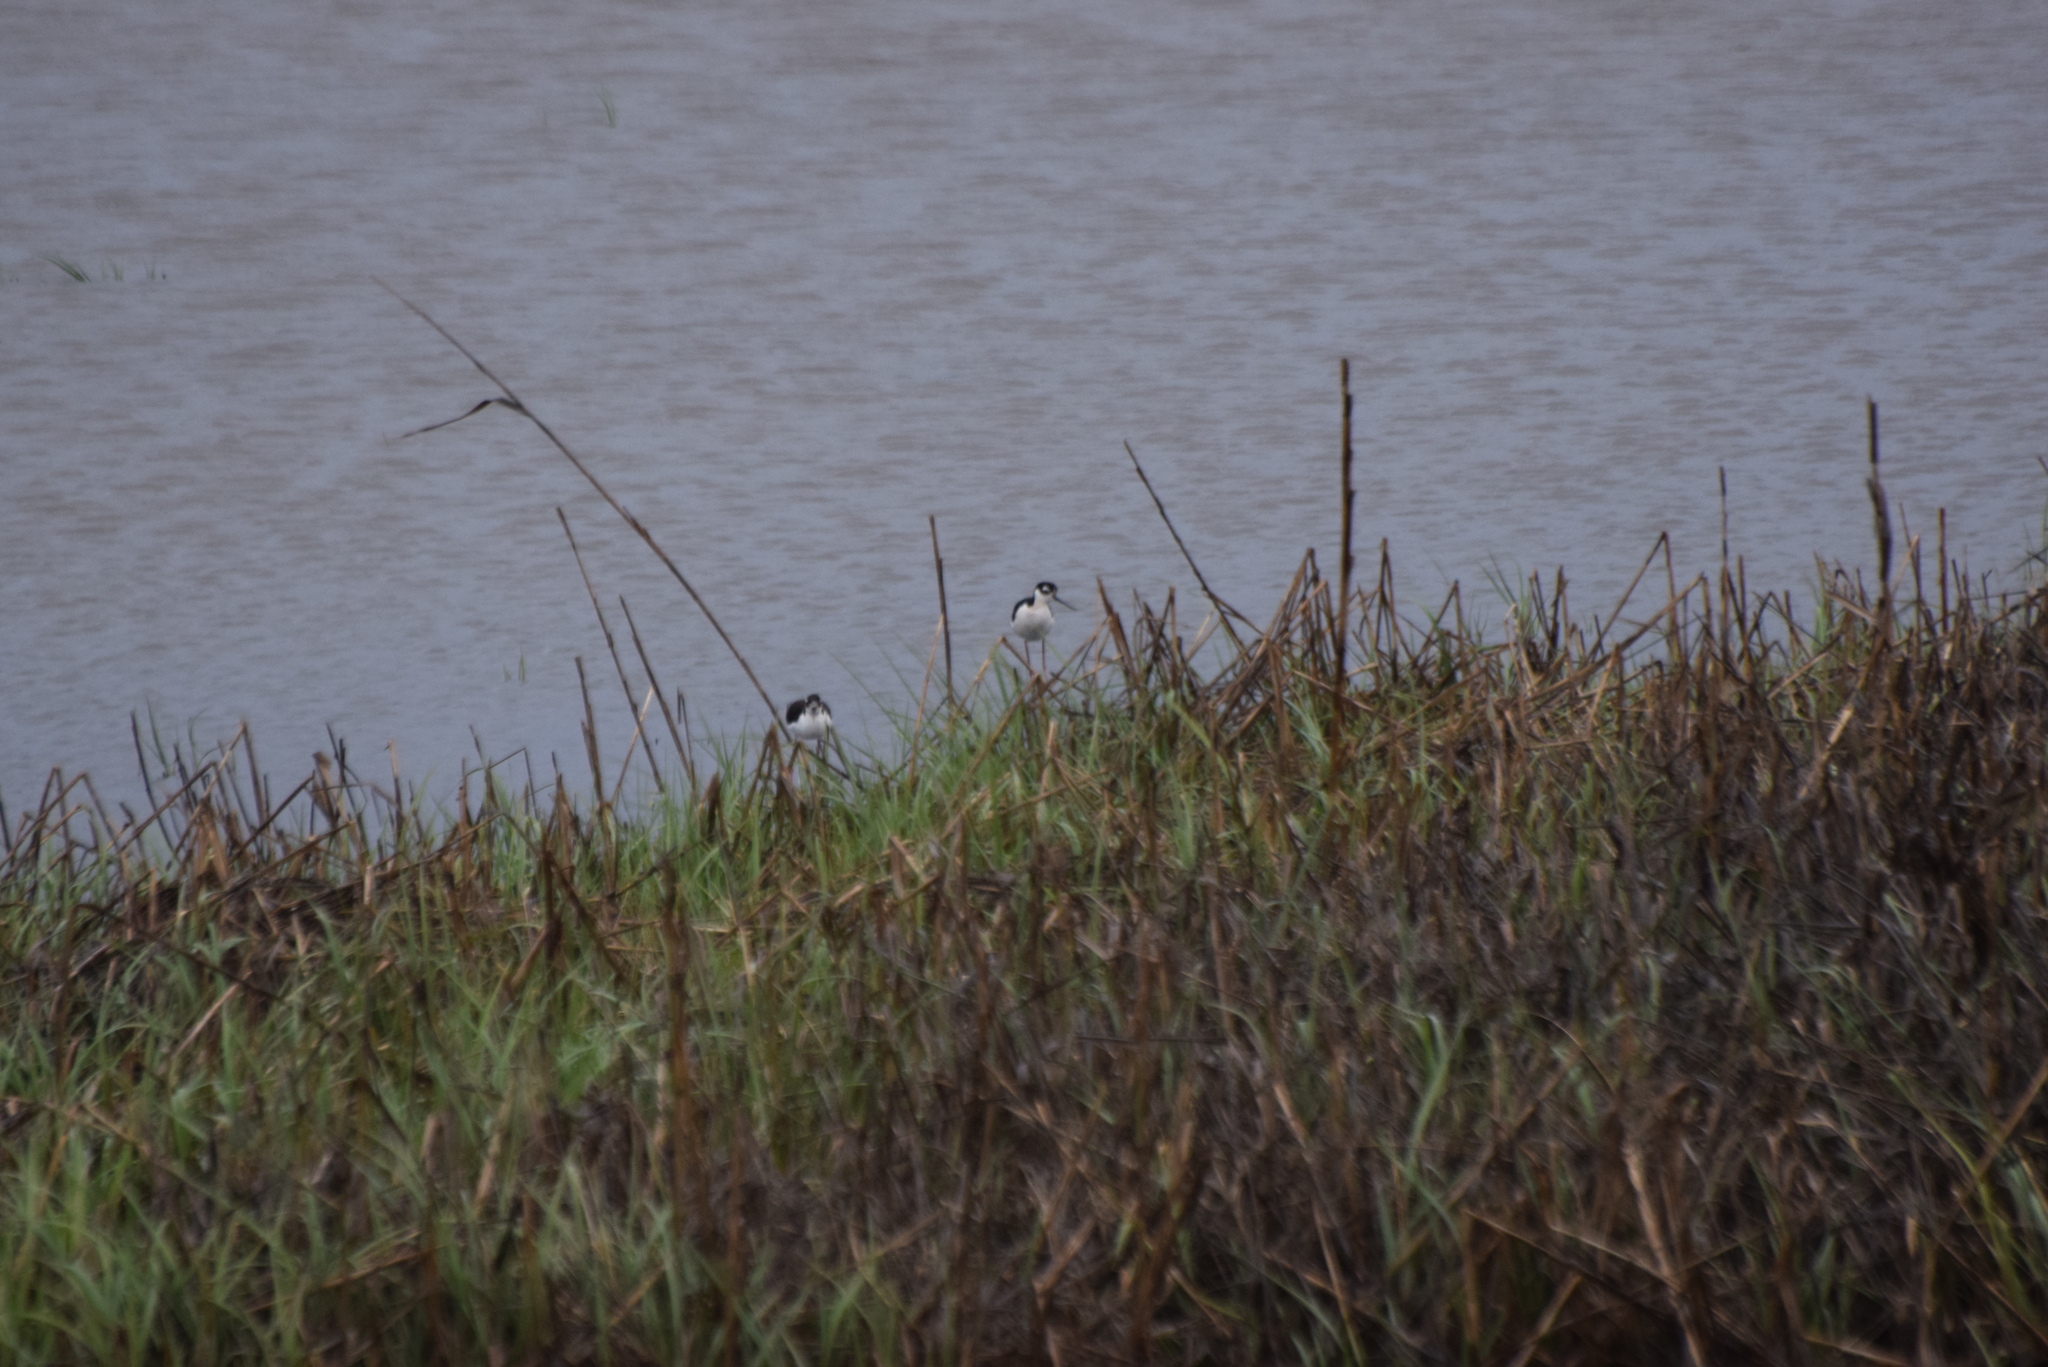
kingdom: Animalia
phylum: Chordata
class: Aves
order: Charadriiformes
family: Recurvirostridae
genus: Himantopus
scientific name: Himantopus mexicanus
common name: Black-necked stilt
